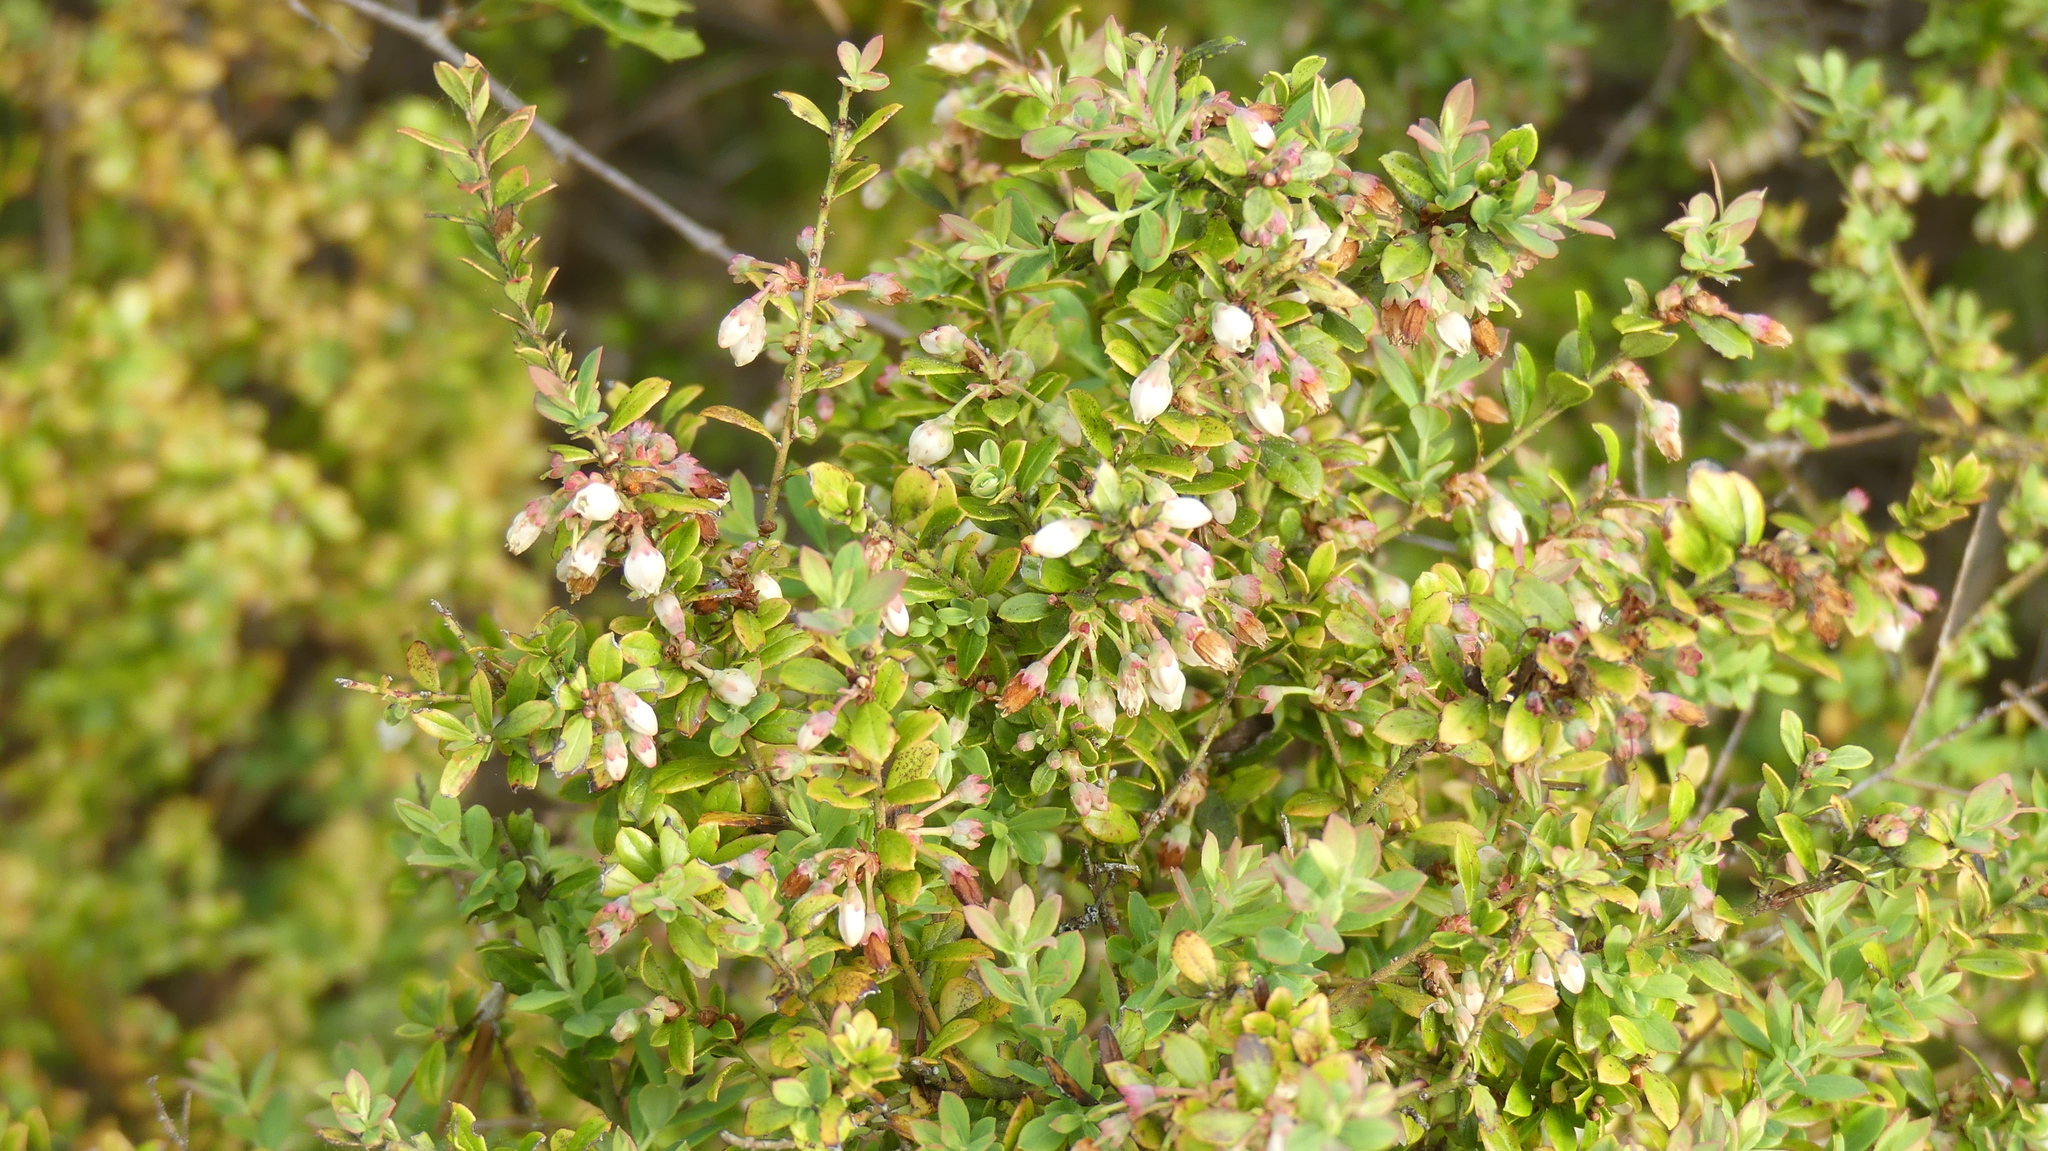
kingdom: Plantae
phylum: Tracheophyta
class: Magnoliopsida
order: Ericales
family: Ericaceae
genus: Vaccinium
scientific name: Vaccinium darrowii
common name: Darrow's blueberry
